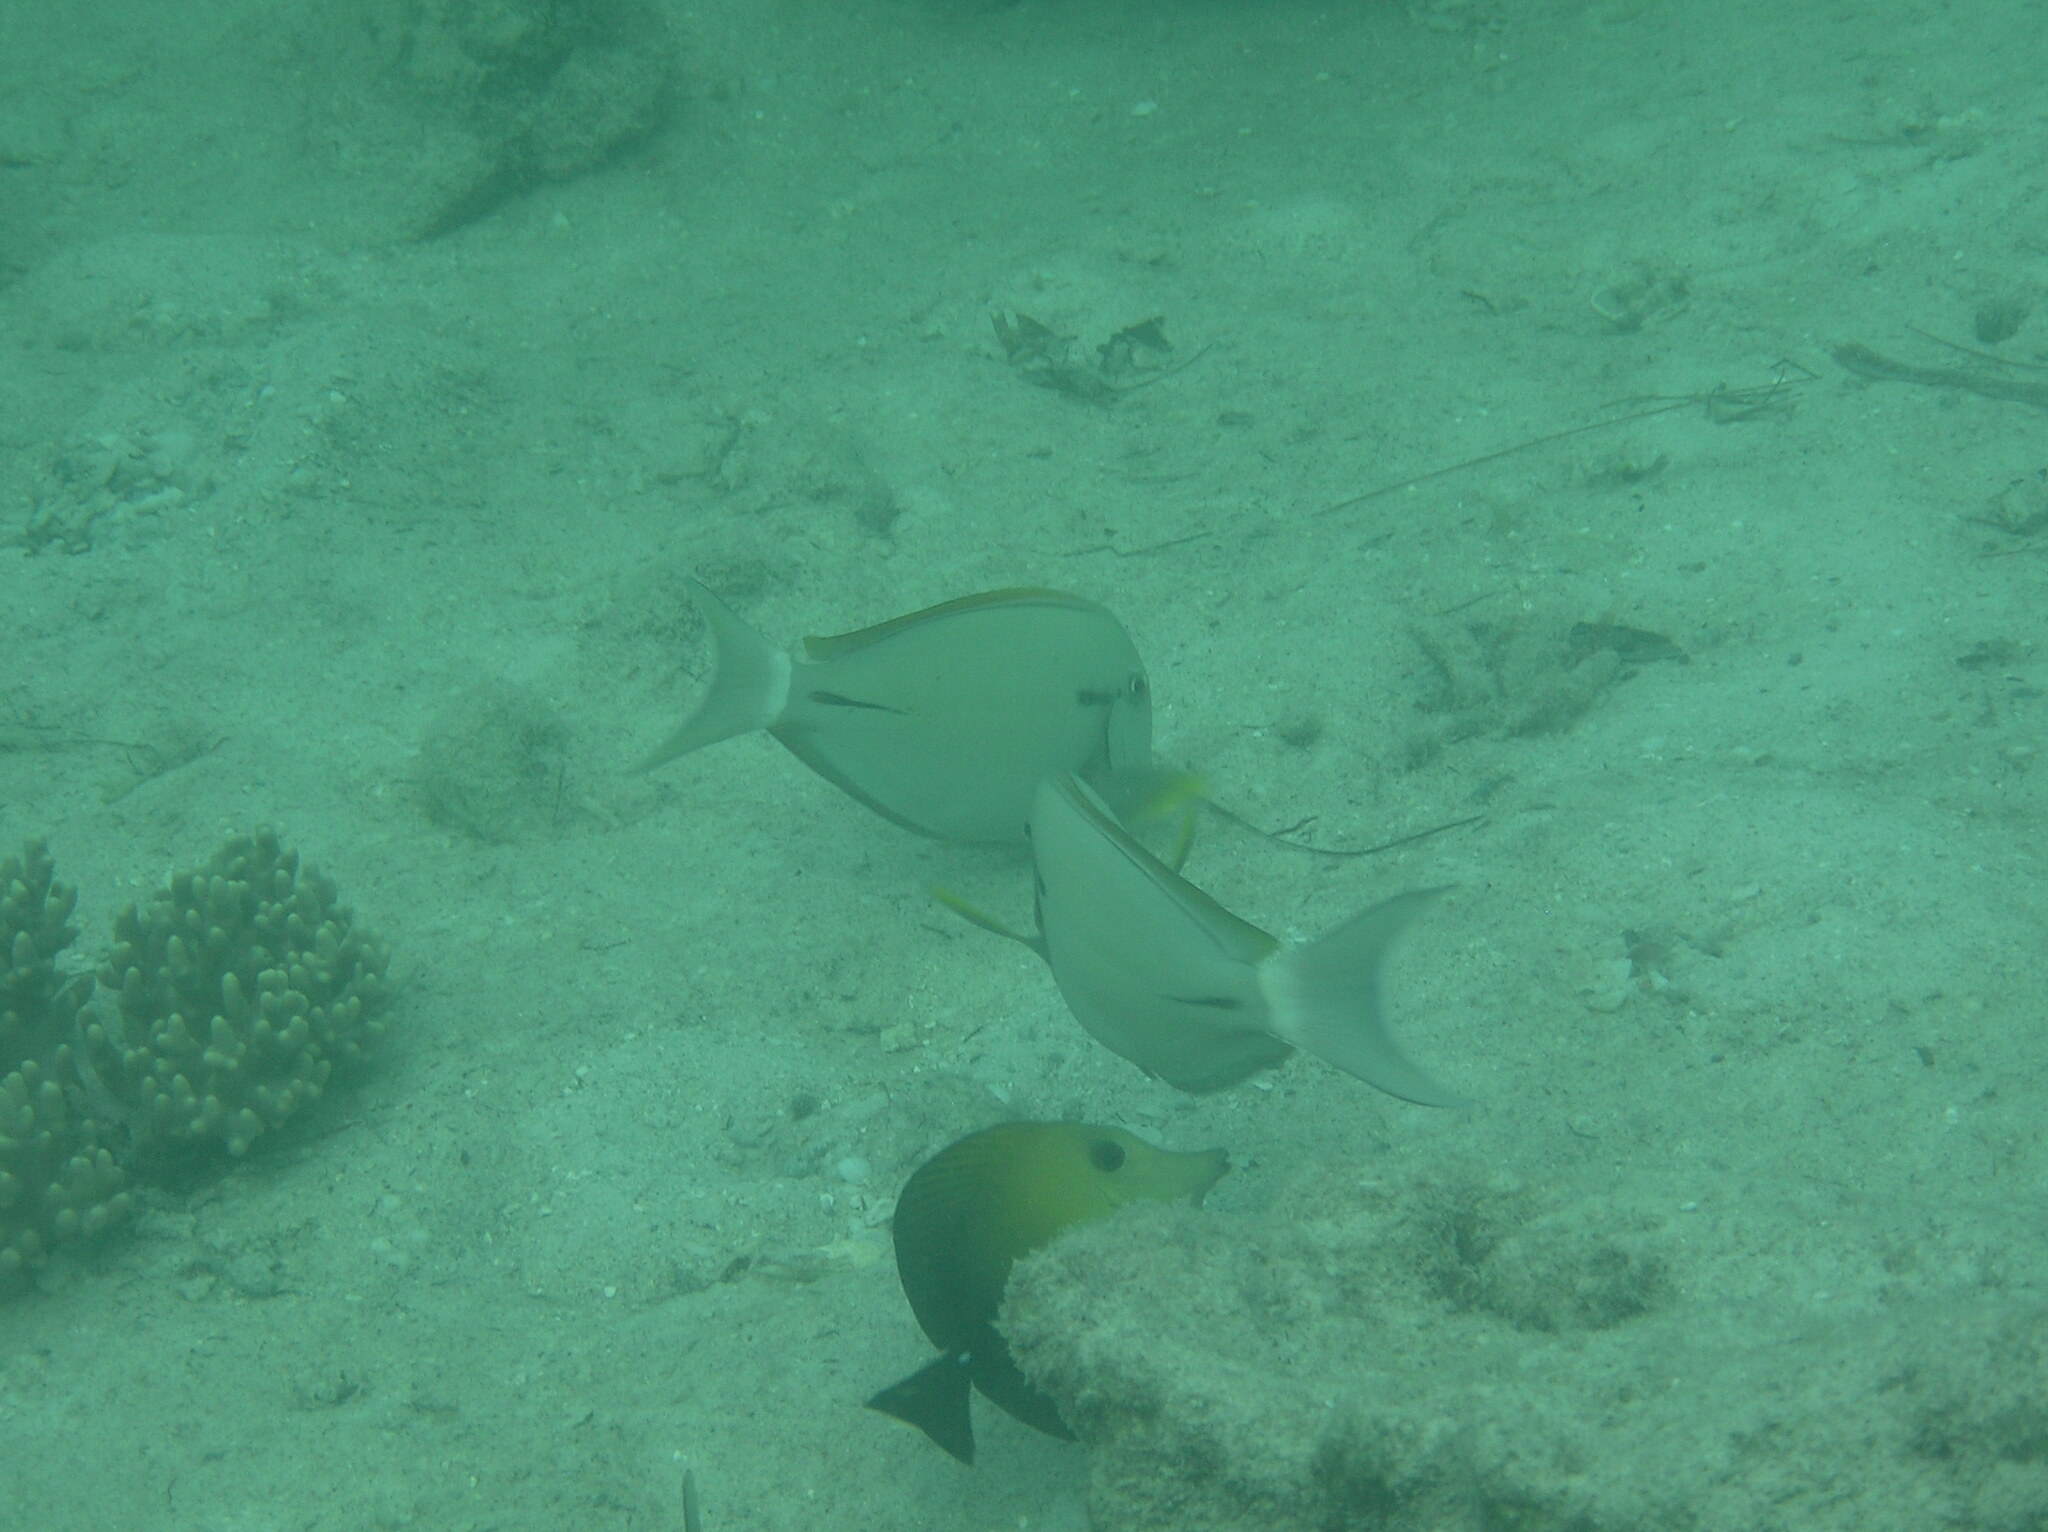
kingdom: Animalia
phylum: Chordata
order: Perciformes
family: Acanthuridae
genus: Acanthurus
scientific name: Acanthurus nigricauda
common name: Black-barred surgeonfish
